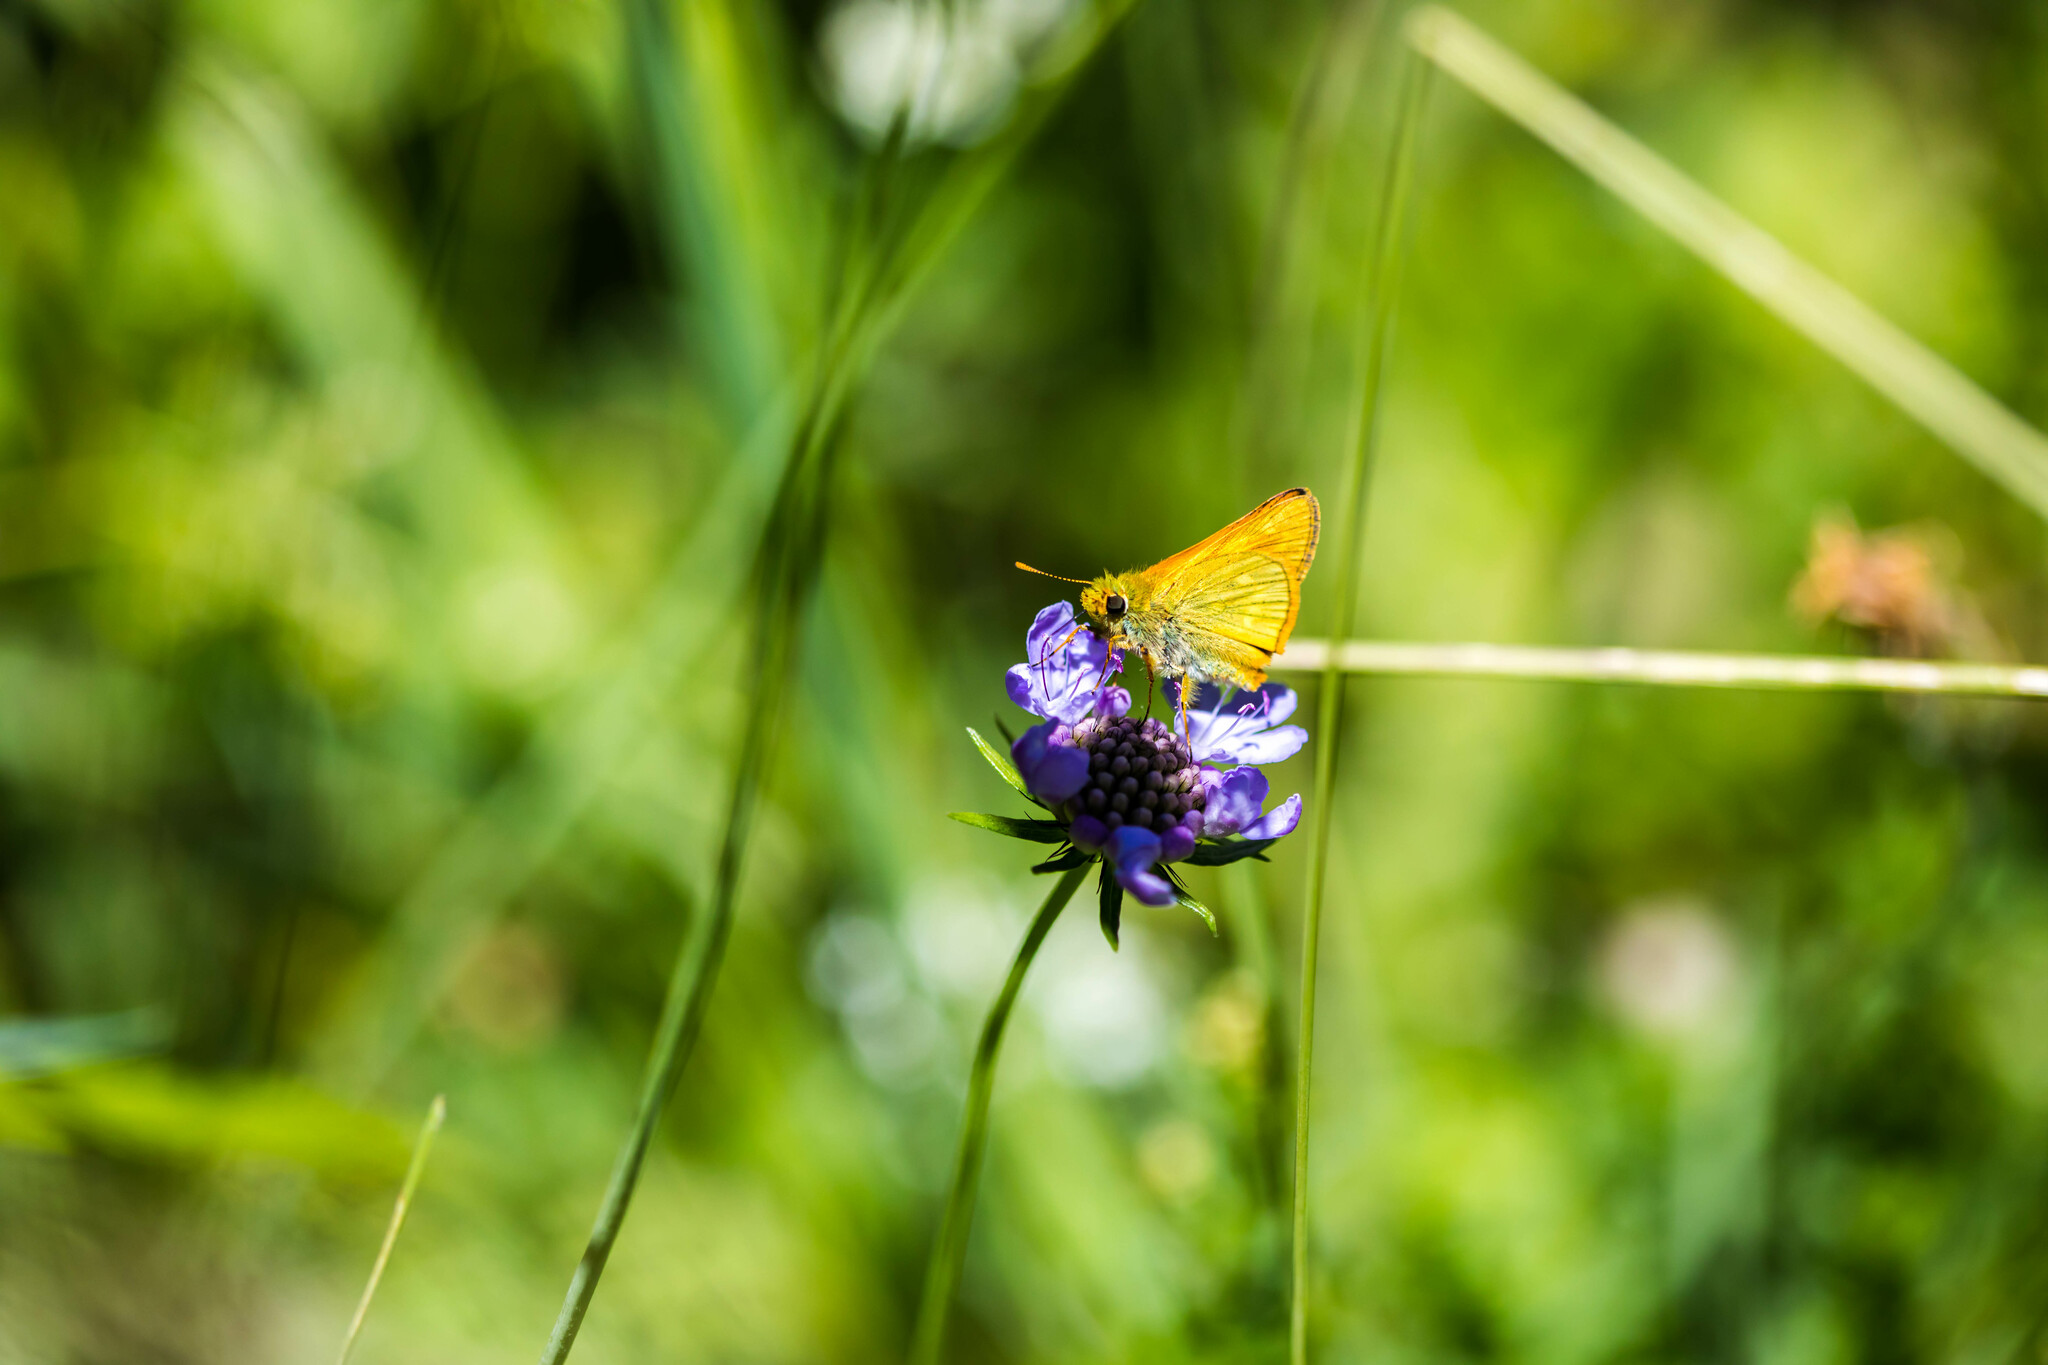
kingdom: Animalia
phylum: Arthropoda
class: Insecta
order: Lepidoptera
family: Hesperiidae
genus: Ochlodes
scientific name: Ochlodes venata
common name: Large skipper
